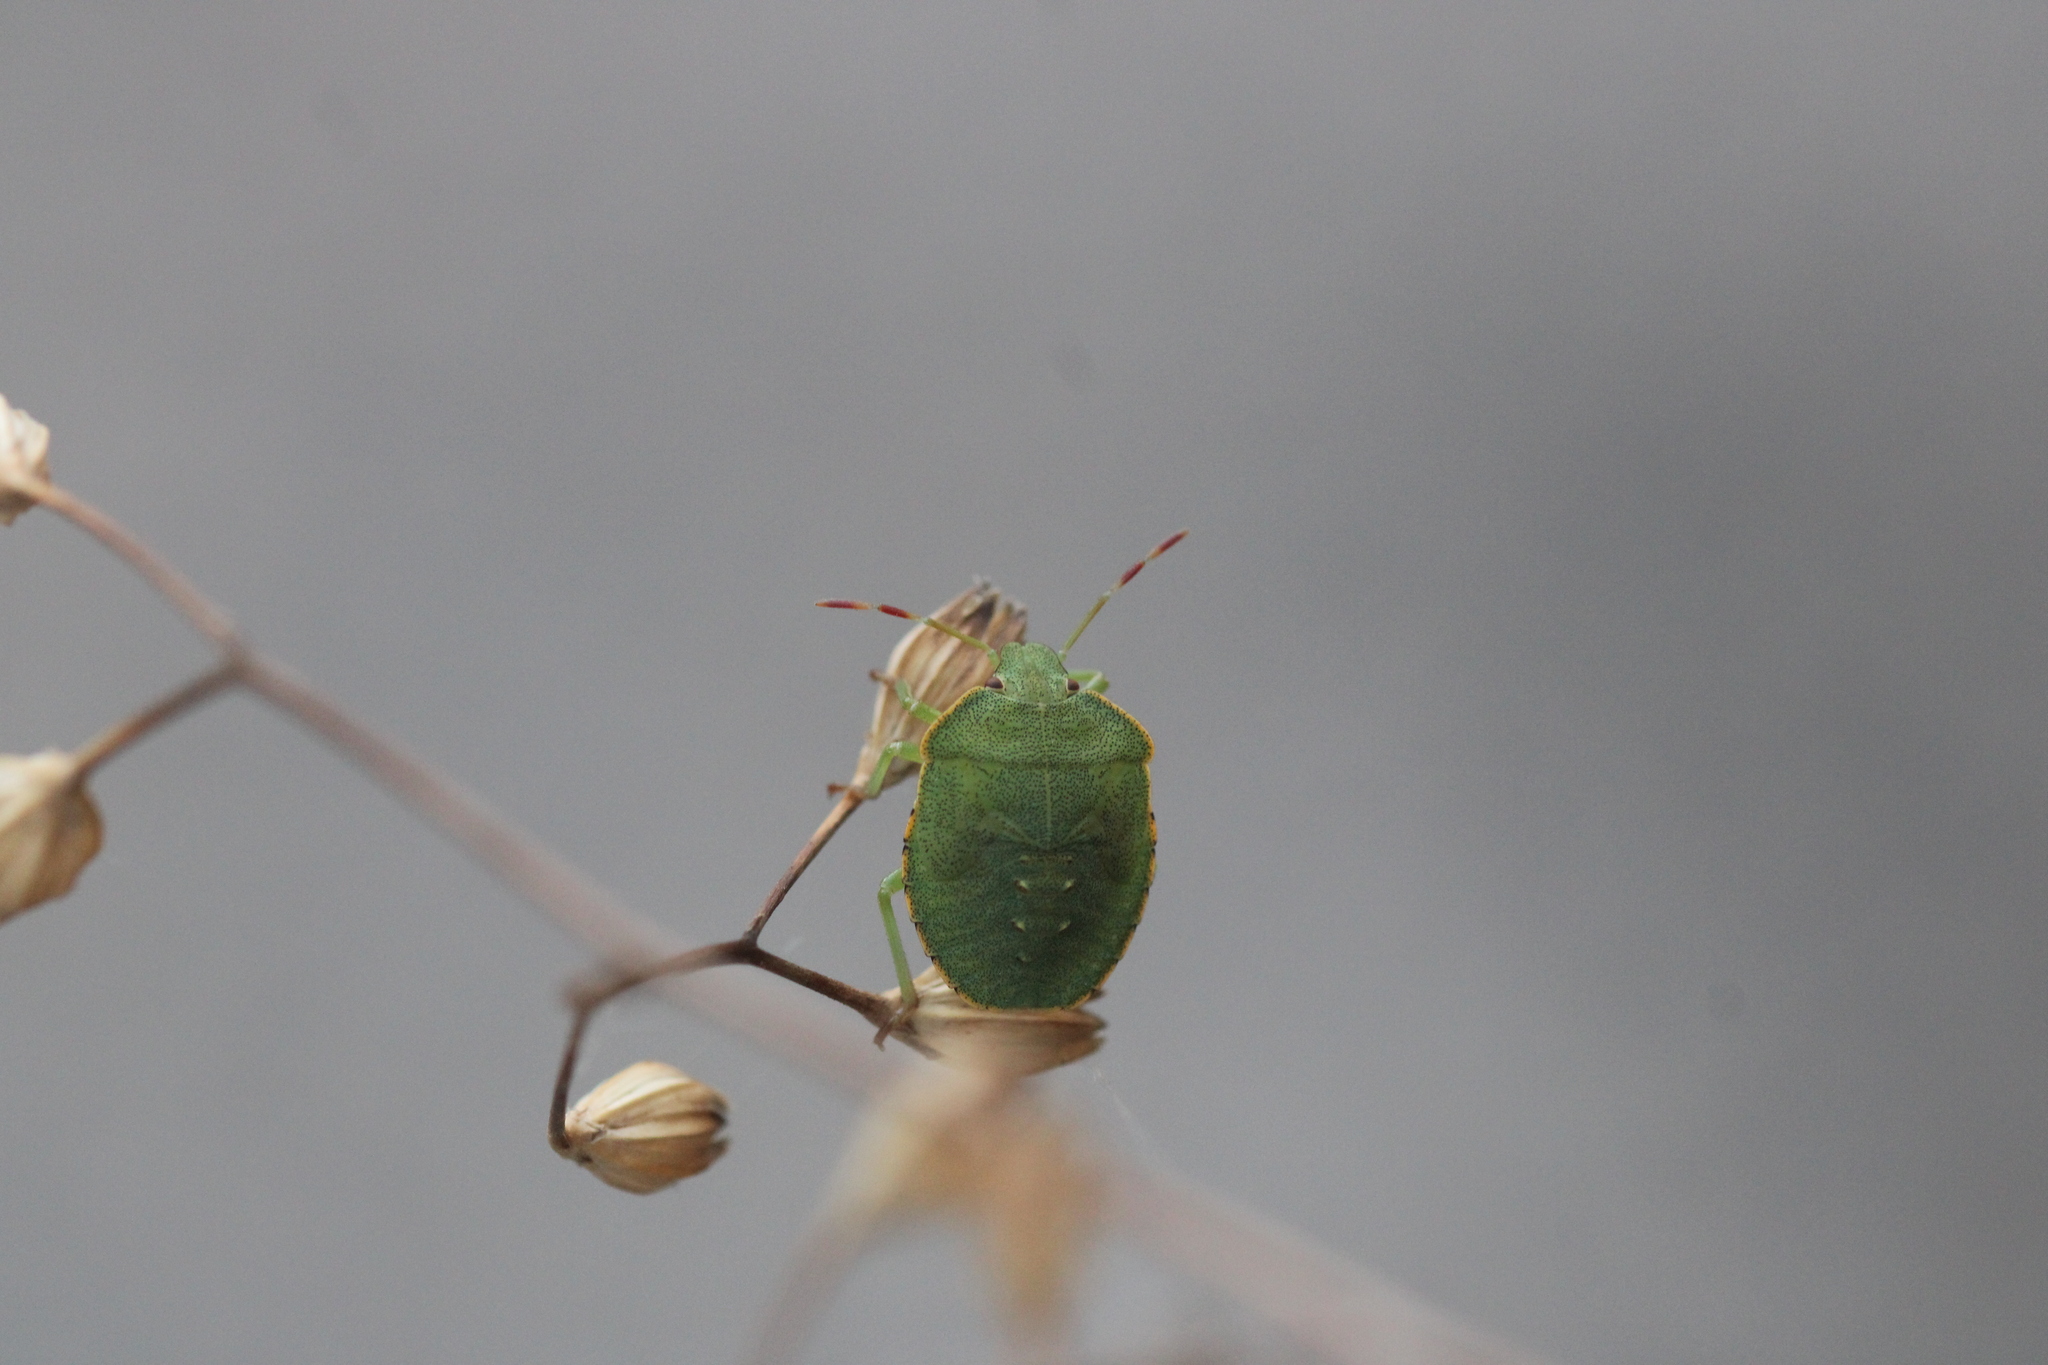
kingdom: Animalia
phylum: Arthropoda
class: Insecta
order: Hemiptera
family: Pentatomidae
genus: Palomena
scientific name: Palomena prasina
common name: Green shieldbug
